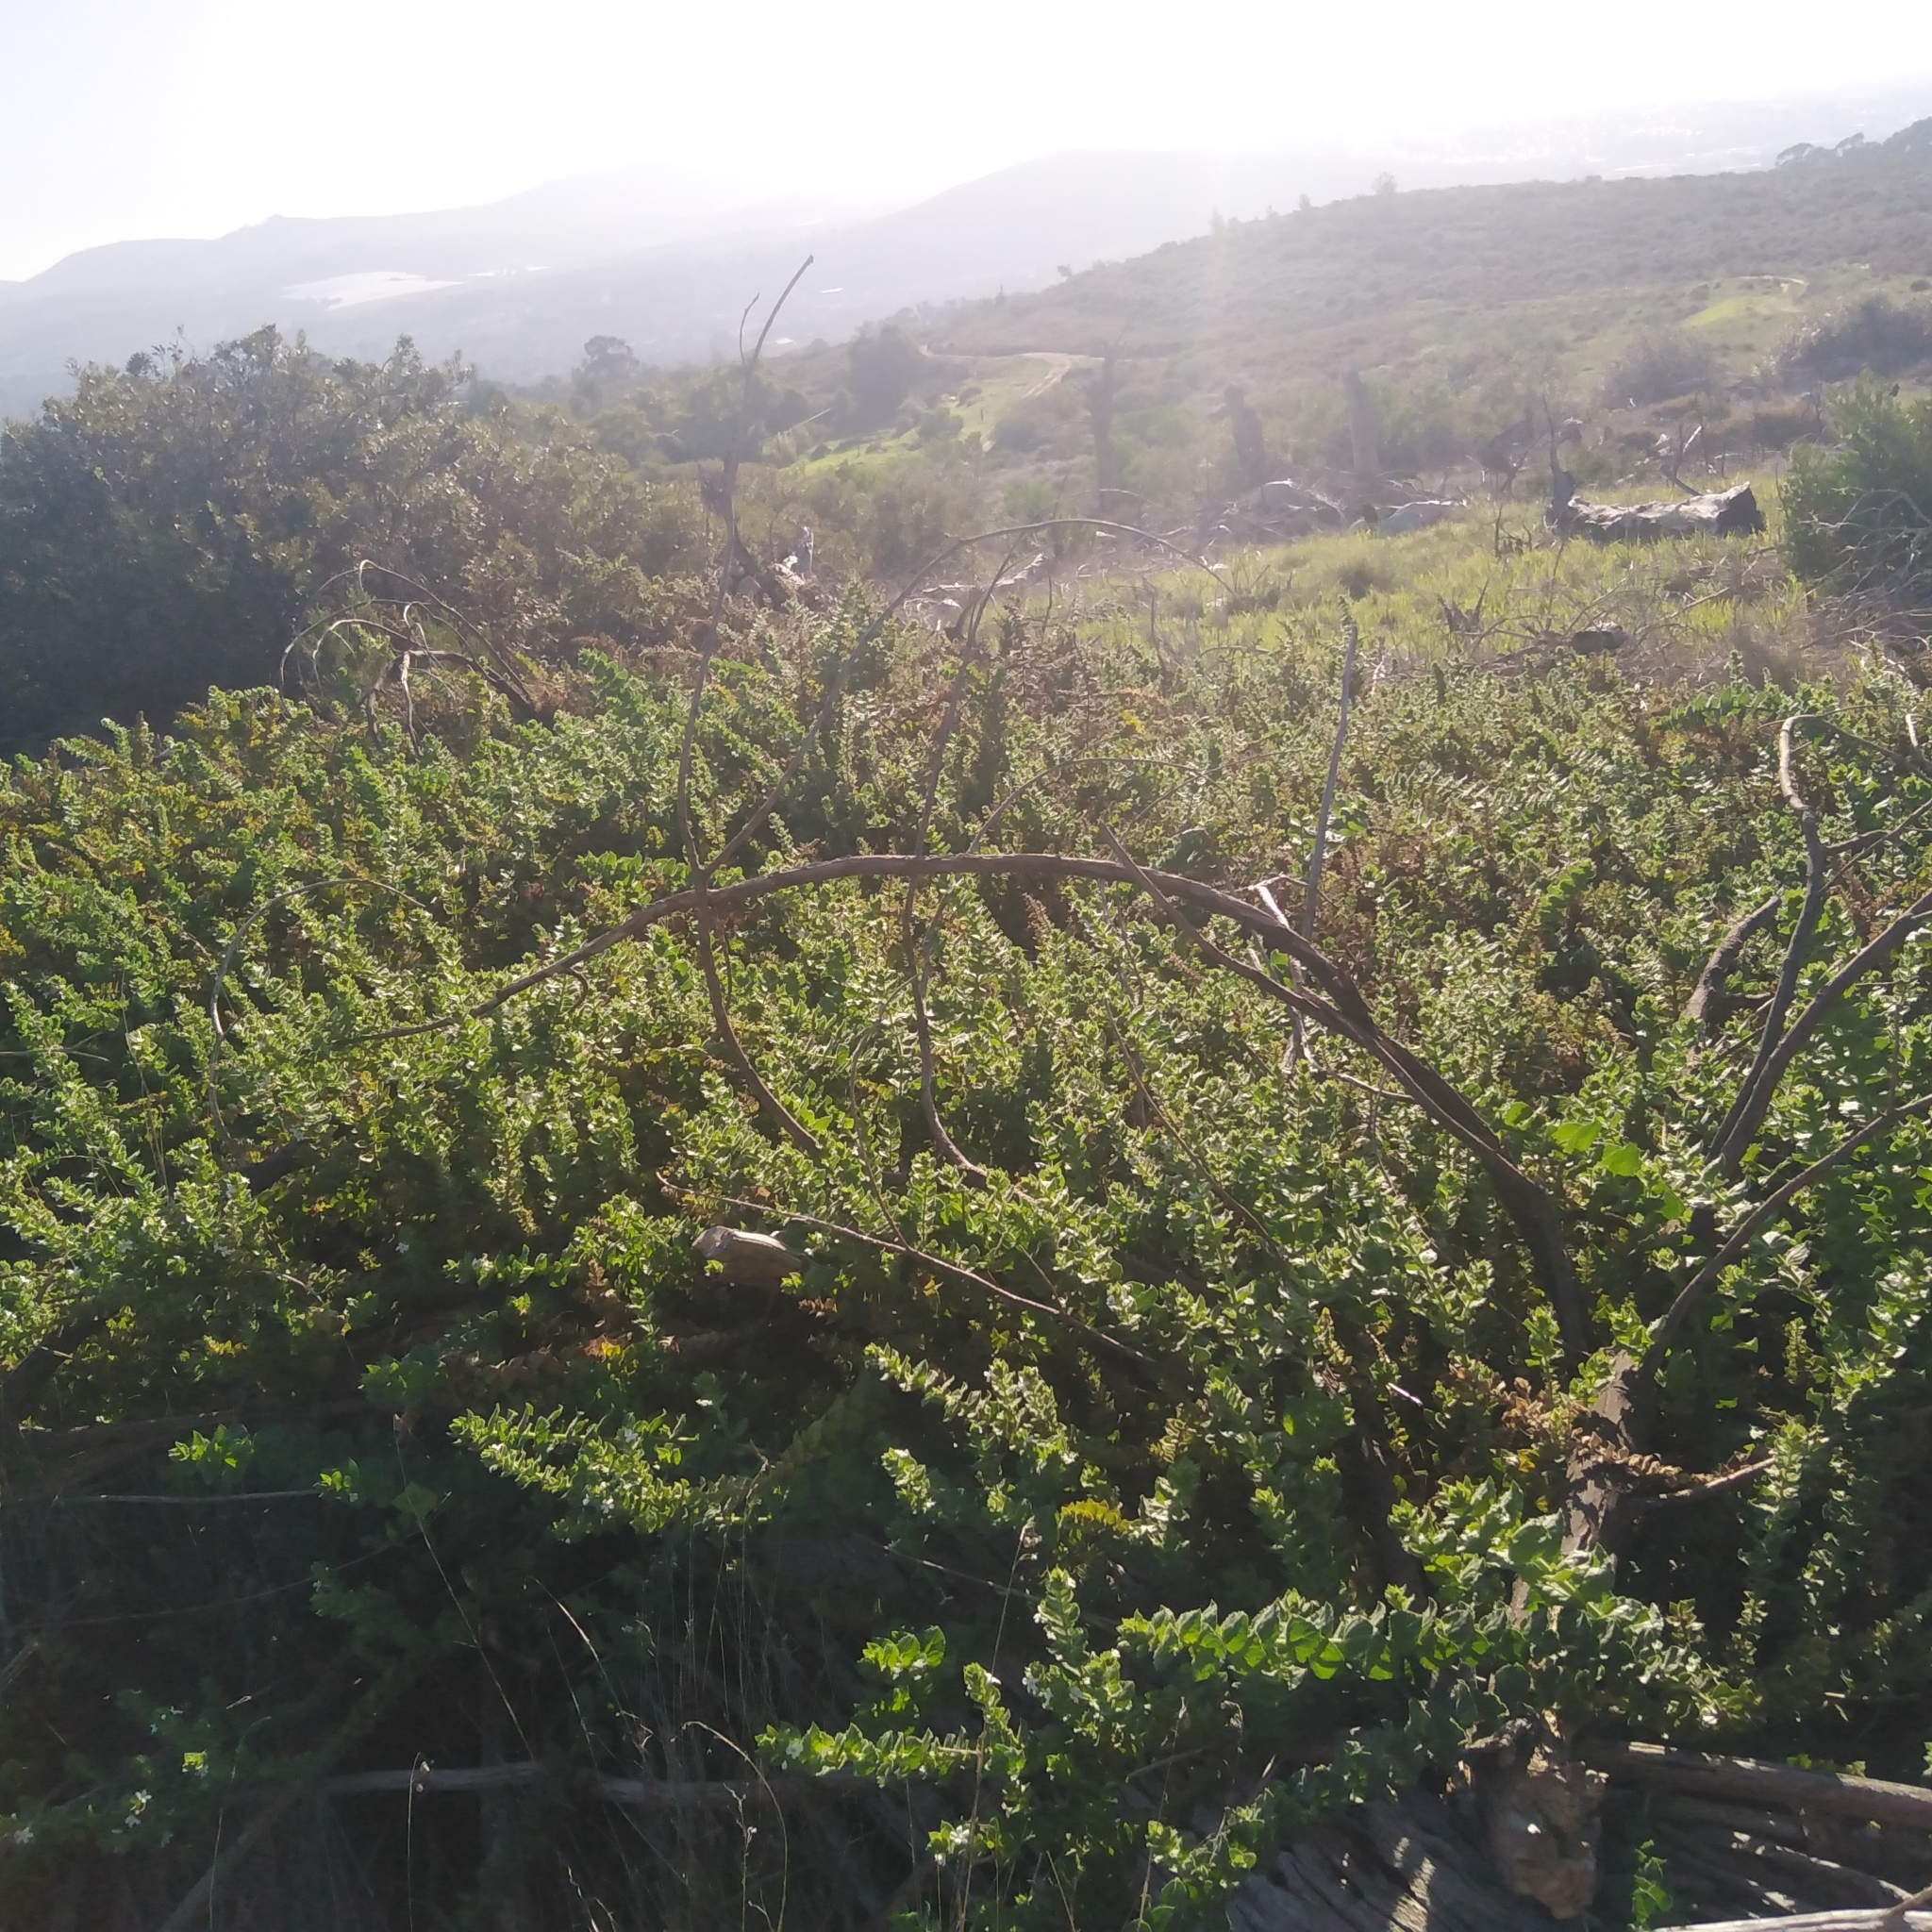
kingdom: Plantae
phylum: Tracheophyta
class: Magnoliopsida
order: Lamiales
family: Scrophulariaceae
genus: Oftia
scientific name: Oftia africana
